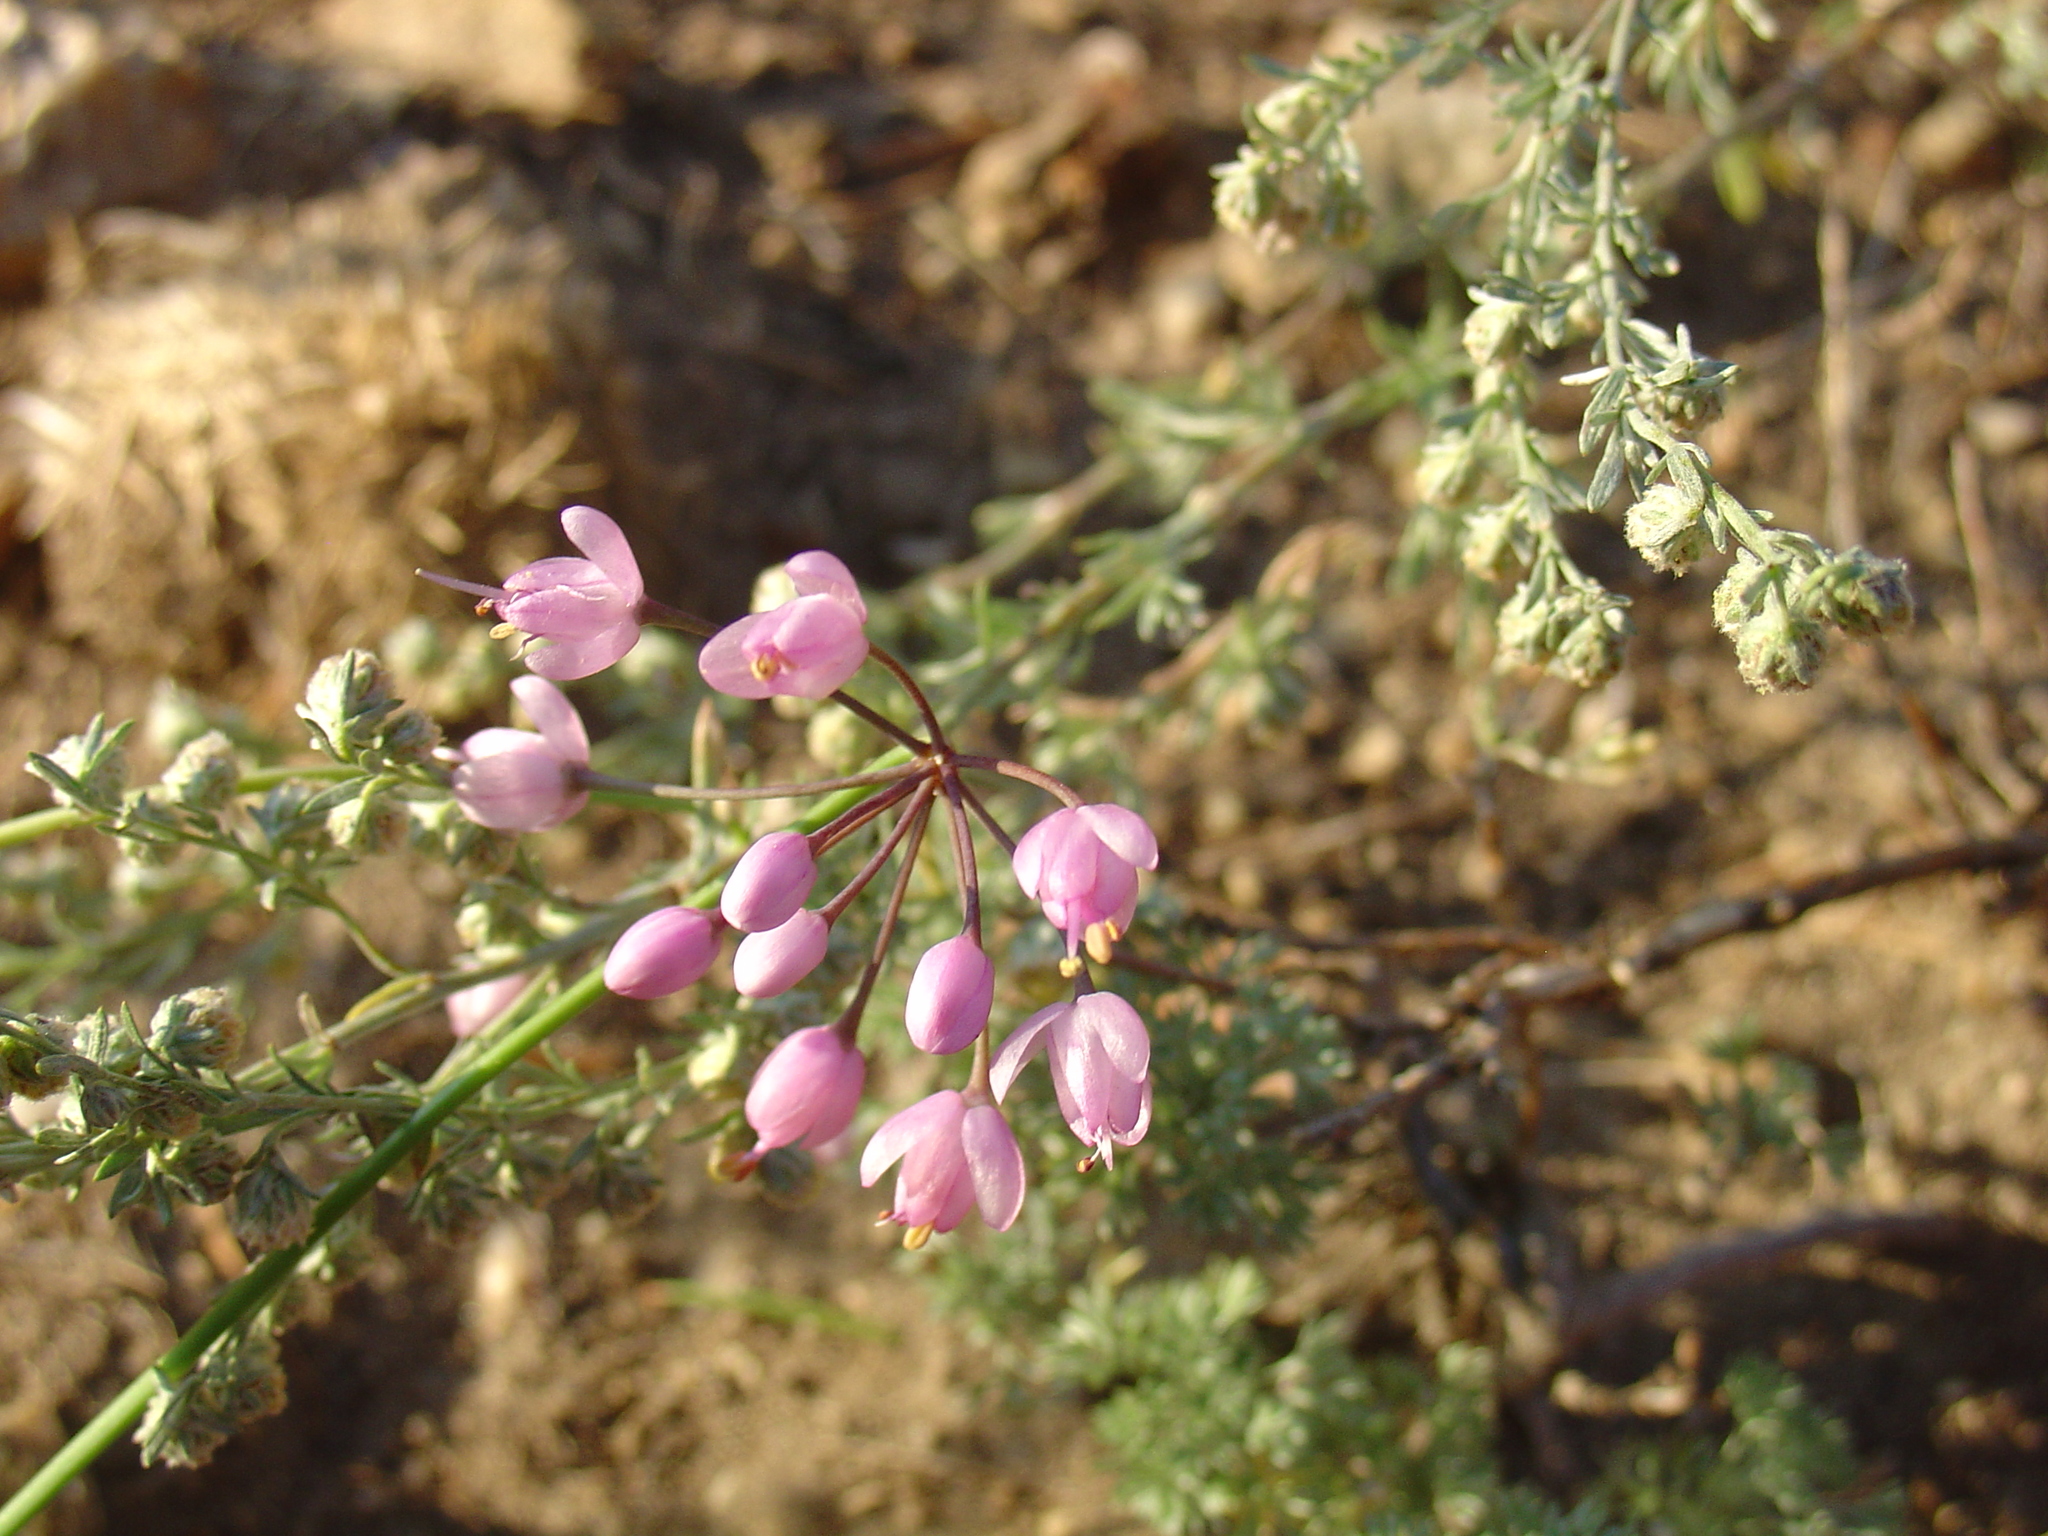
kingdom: Plantae
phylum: Tracheophyta
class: Liliopsida
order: Asparagales
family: Amaryllidaceae
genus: Allium
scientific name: Allium cernuum
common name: Nodding onion
